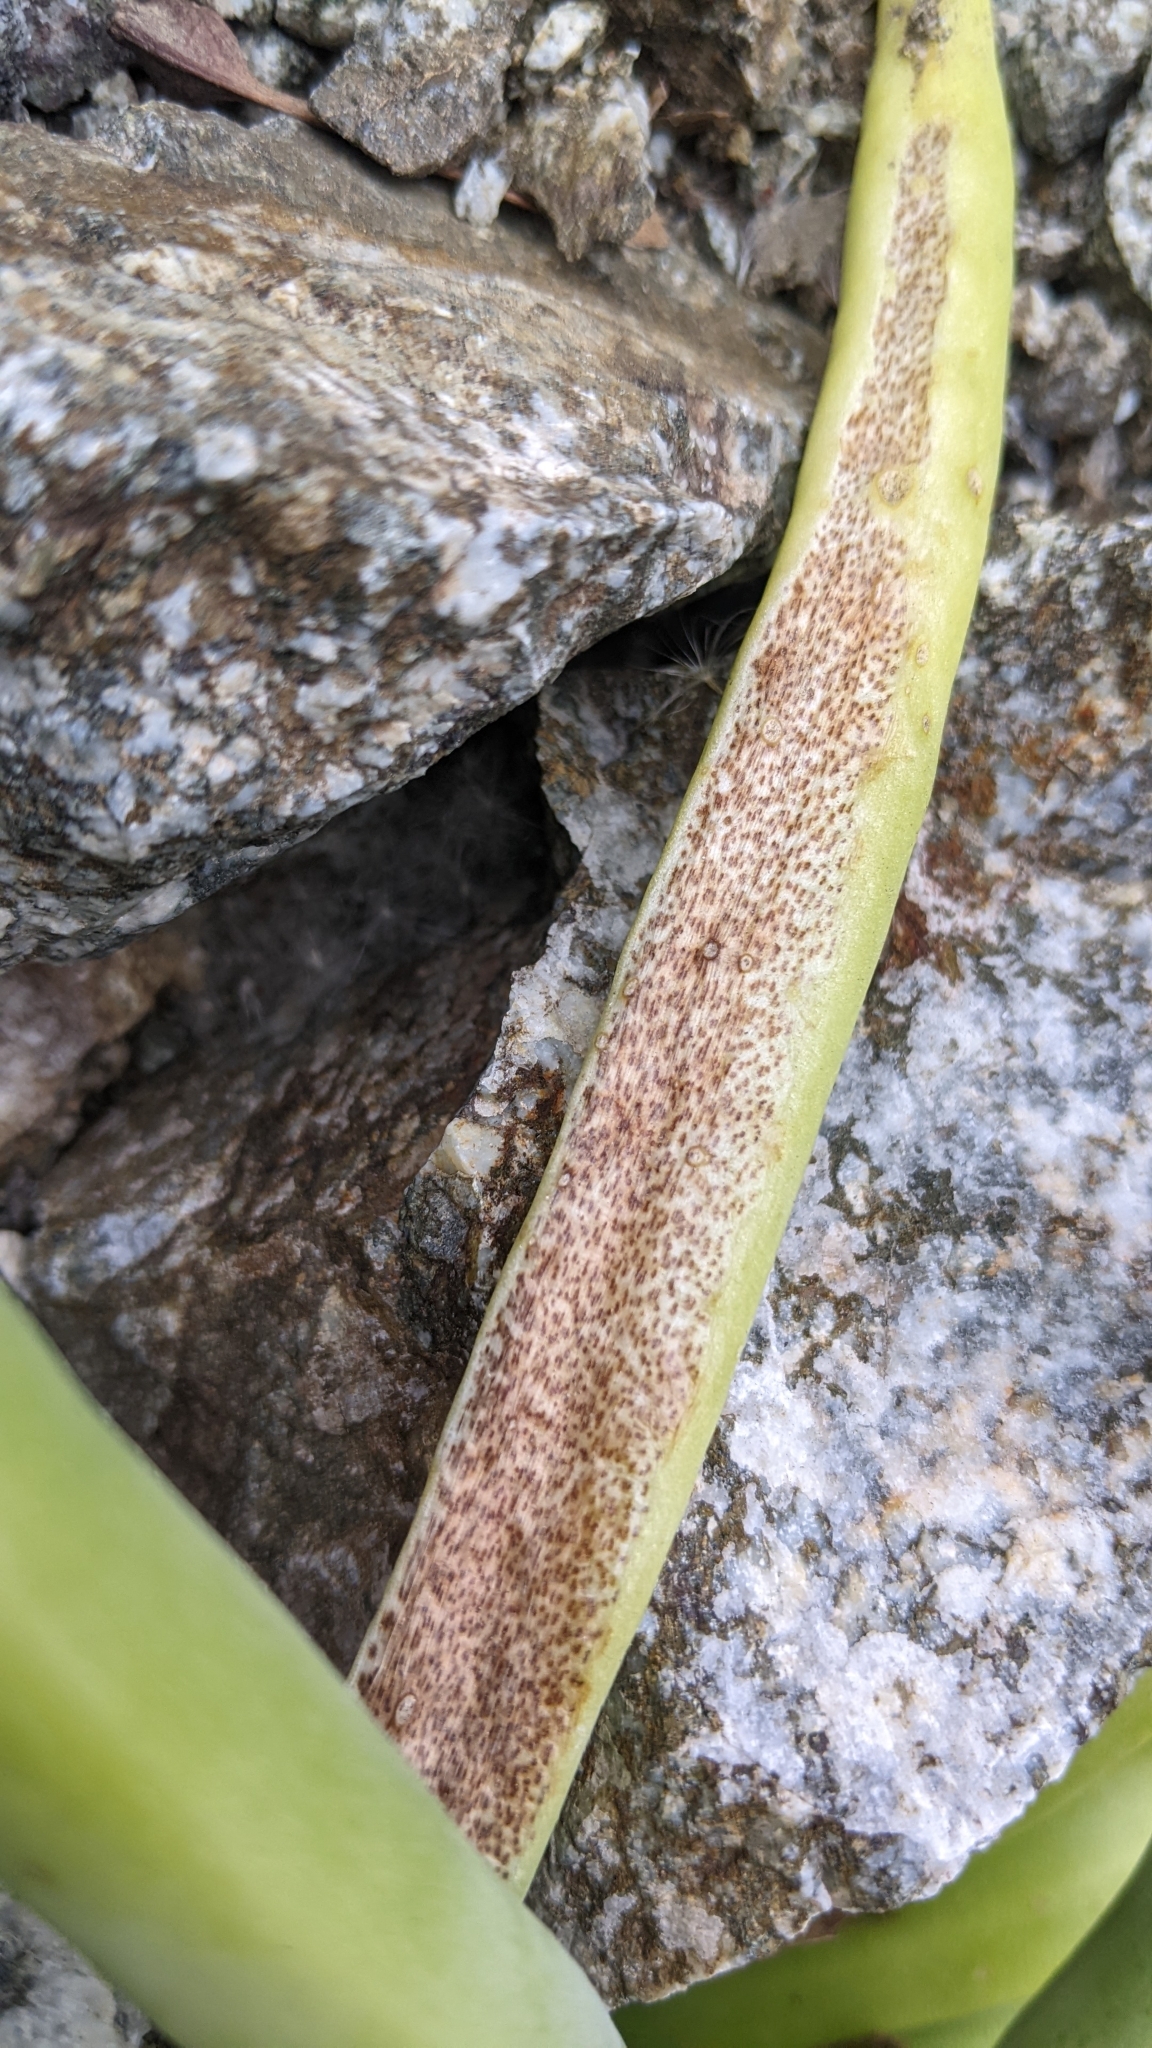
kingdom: Plantae
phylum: Tracheophyta
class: Magnoliopsida
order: Saxifragales
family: Crassulaceae
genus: Dudleya
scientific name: Dudleya densiflora
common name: San gabriel mountains dudleya
